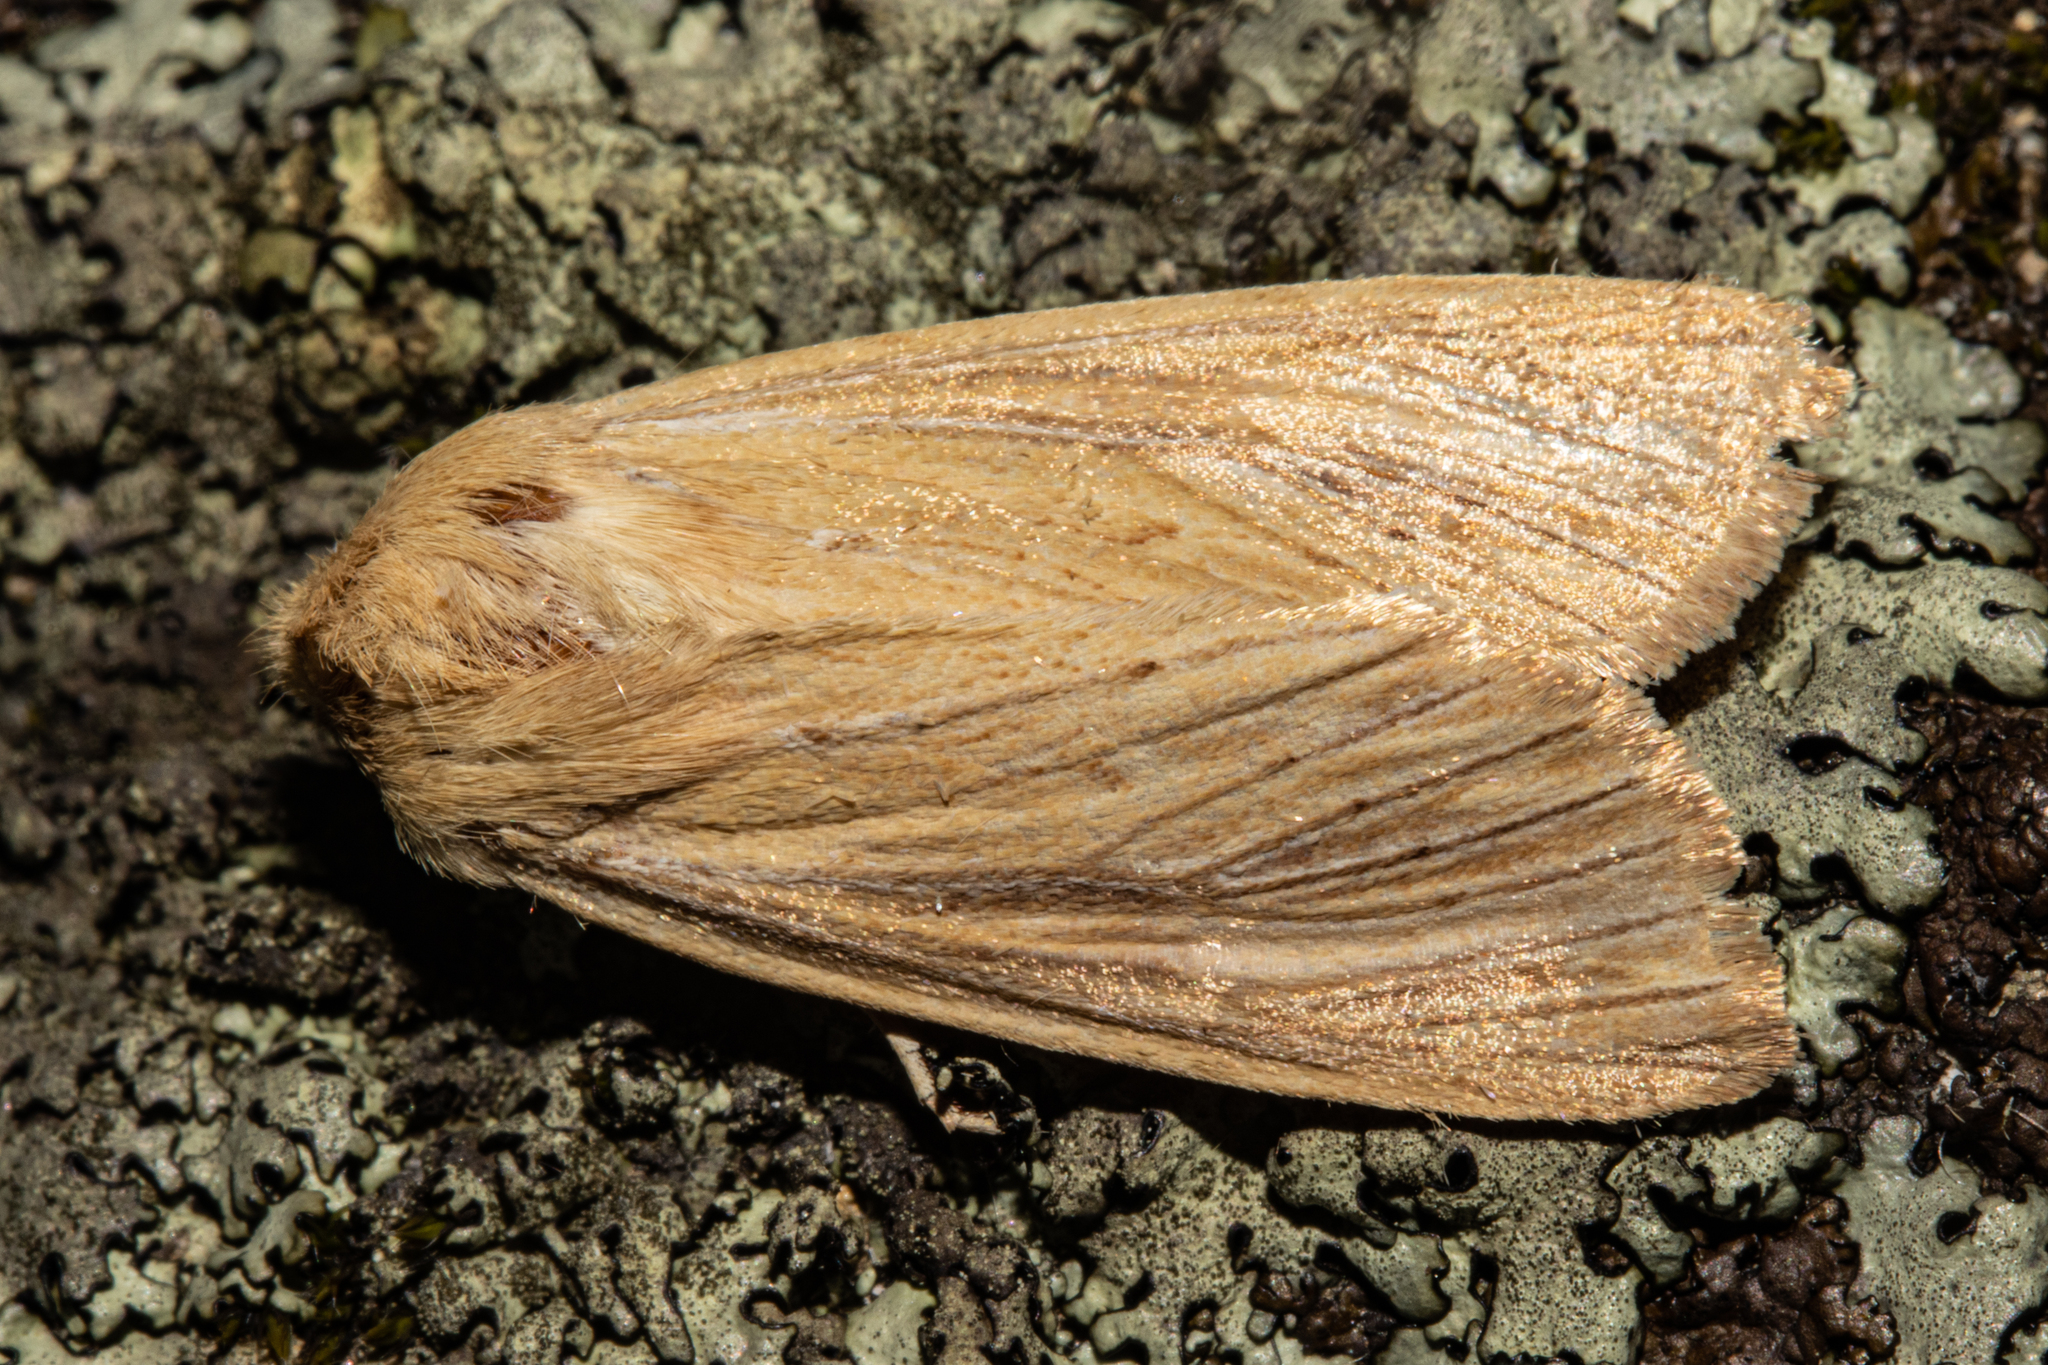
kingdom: Animalia
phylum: Arthropoda
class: Insecta
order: Lepidoptera
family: Noctuidae
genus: Ichneutica
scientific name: Ichneutica arotis
